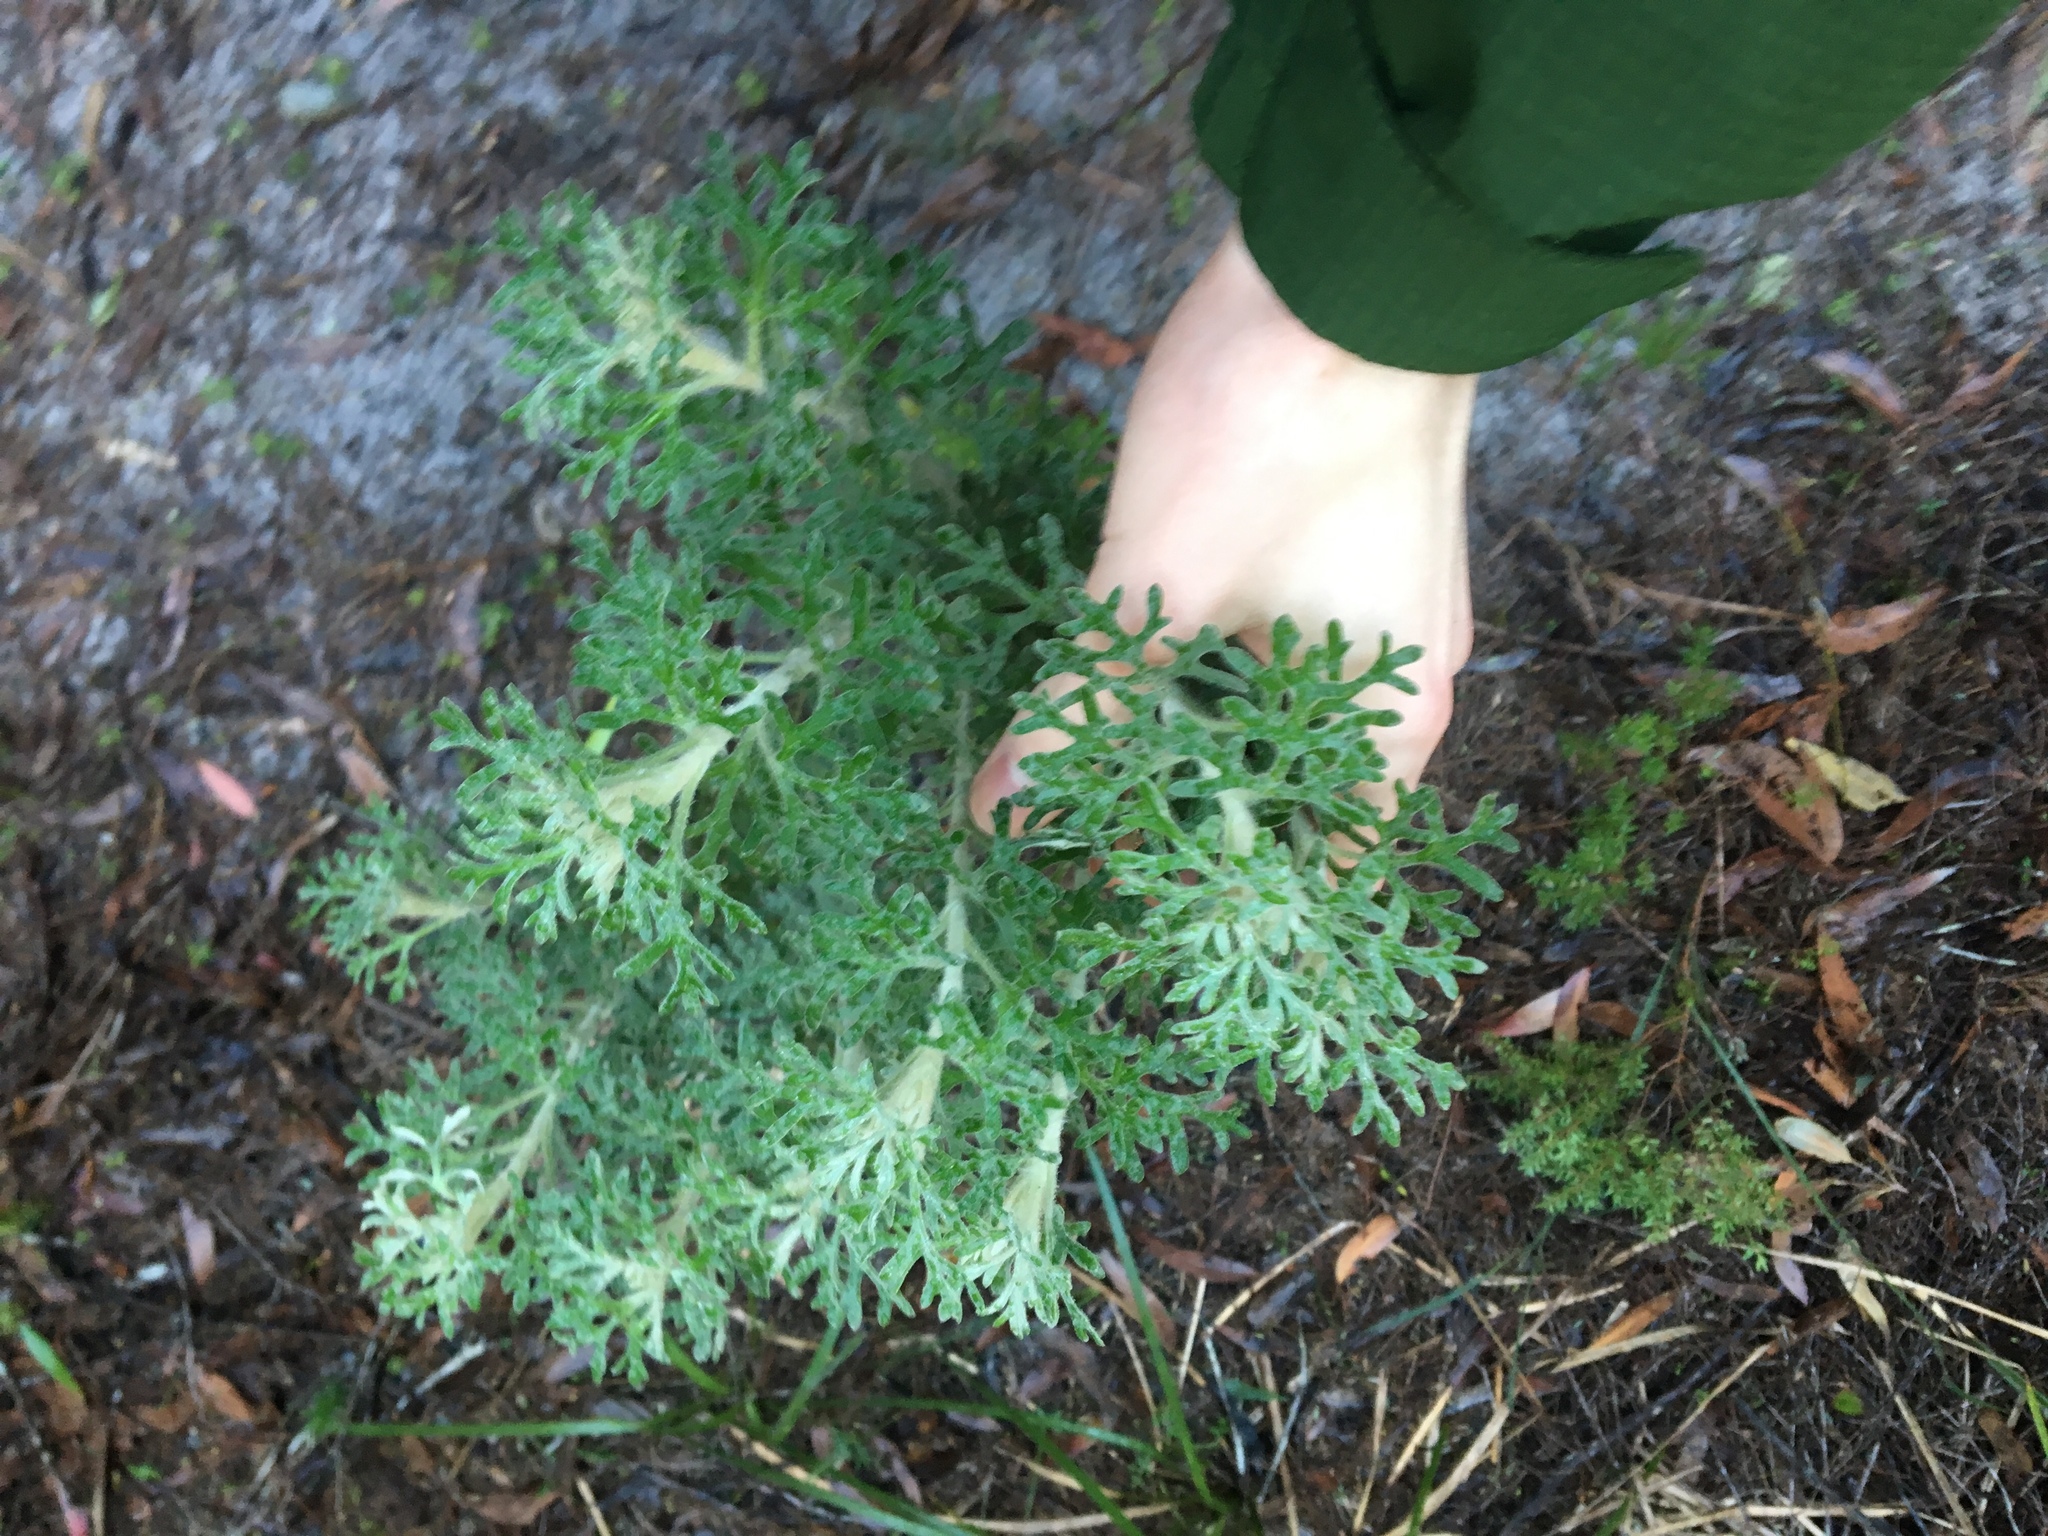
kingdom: Plantae
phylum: Tracheophyta
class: Magnoliopsida
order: Apiales
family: Apiaceae
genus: Actinotus
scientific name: Actinotus helianthi
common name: Flannel-flower
